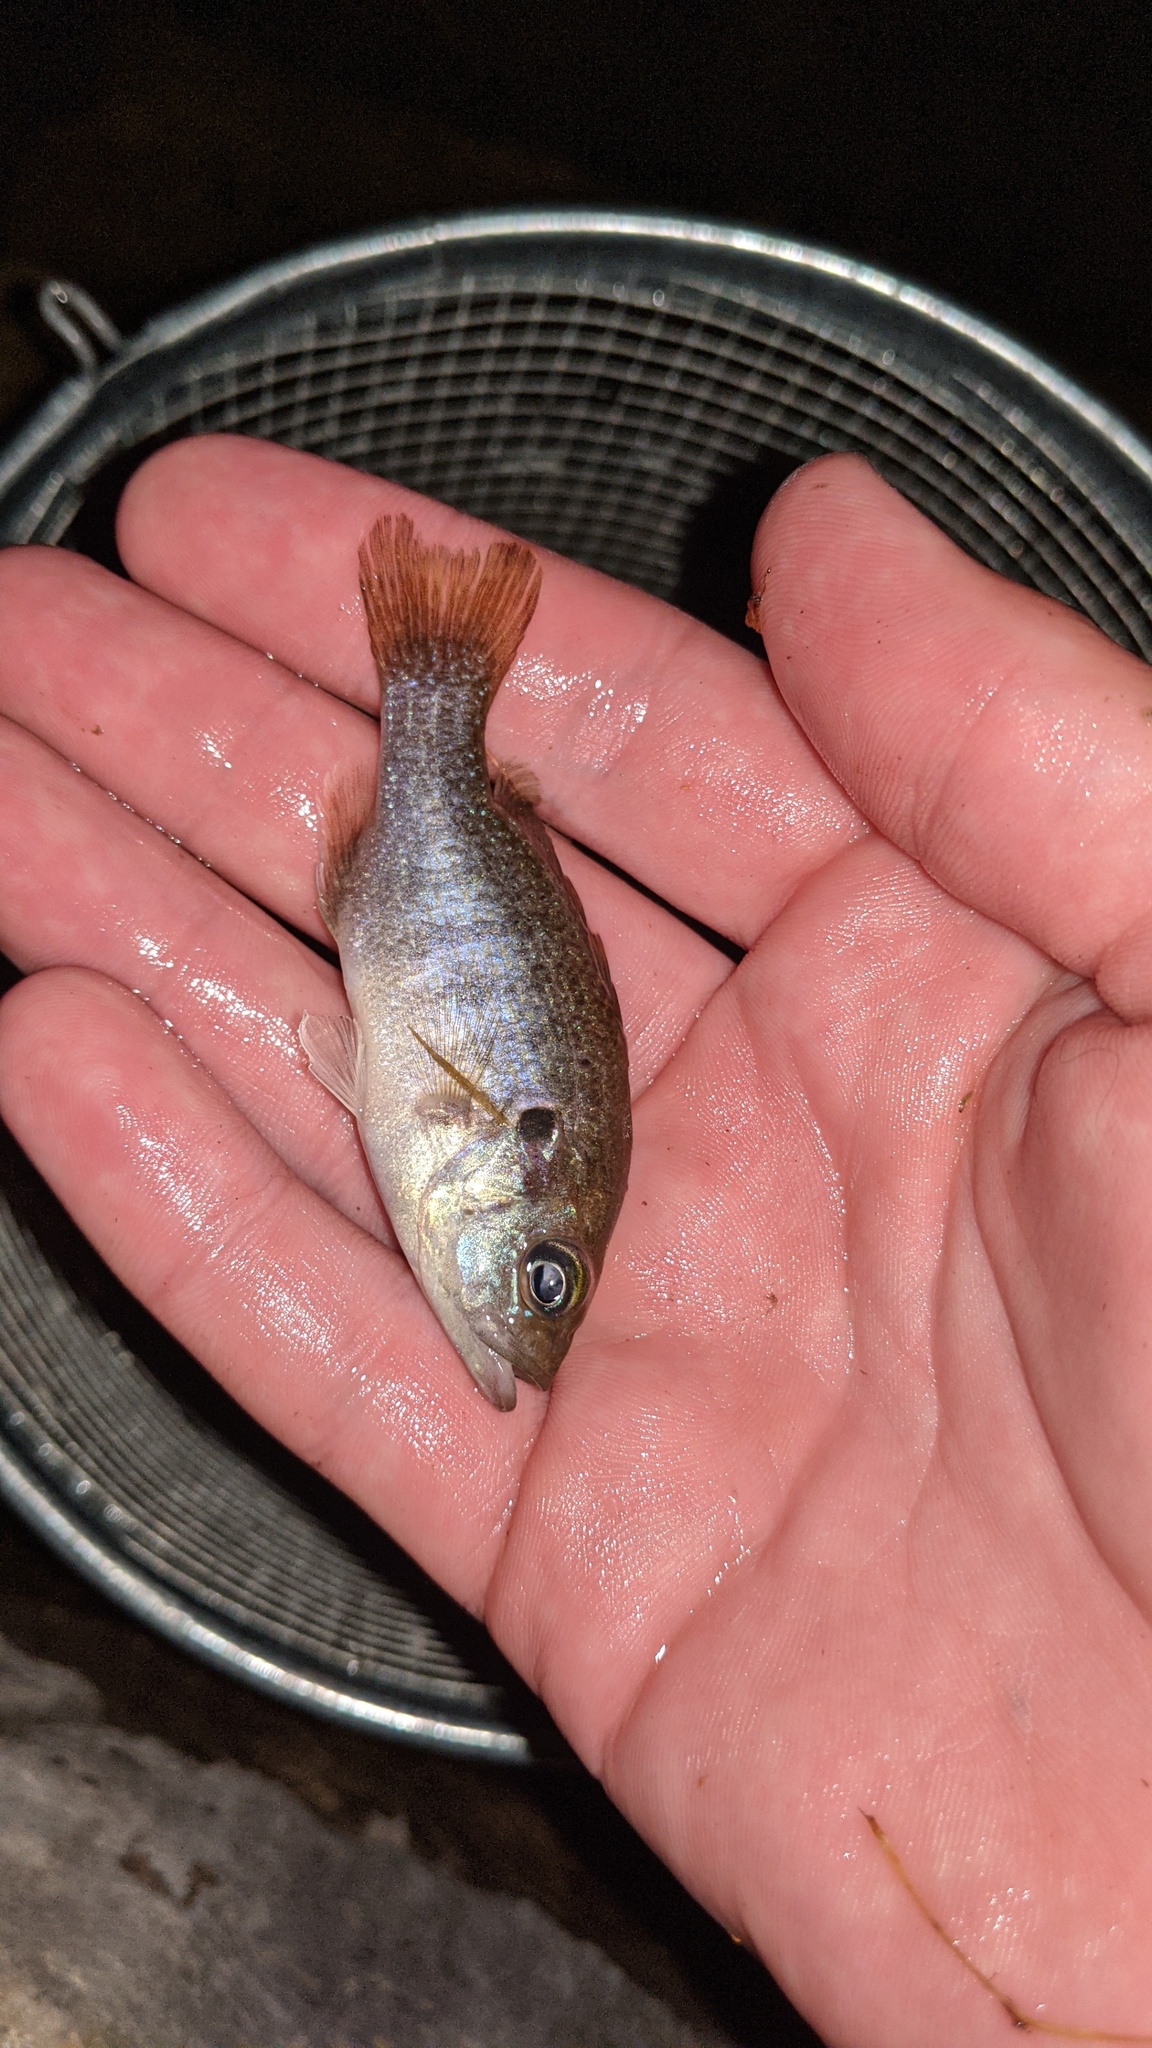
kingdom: Animalia
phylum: Chordata
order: Perciformes
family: Centrarchidae
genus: Lepomis
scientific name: Lepomis cyanellus
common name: Green sunfish
